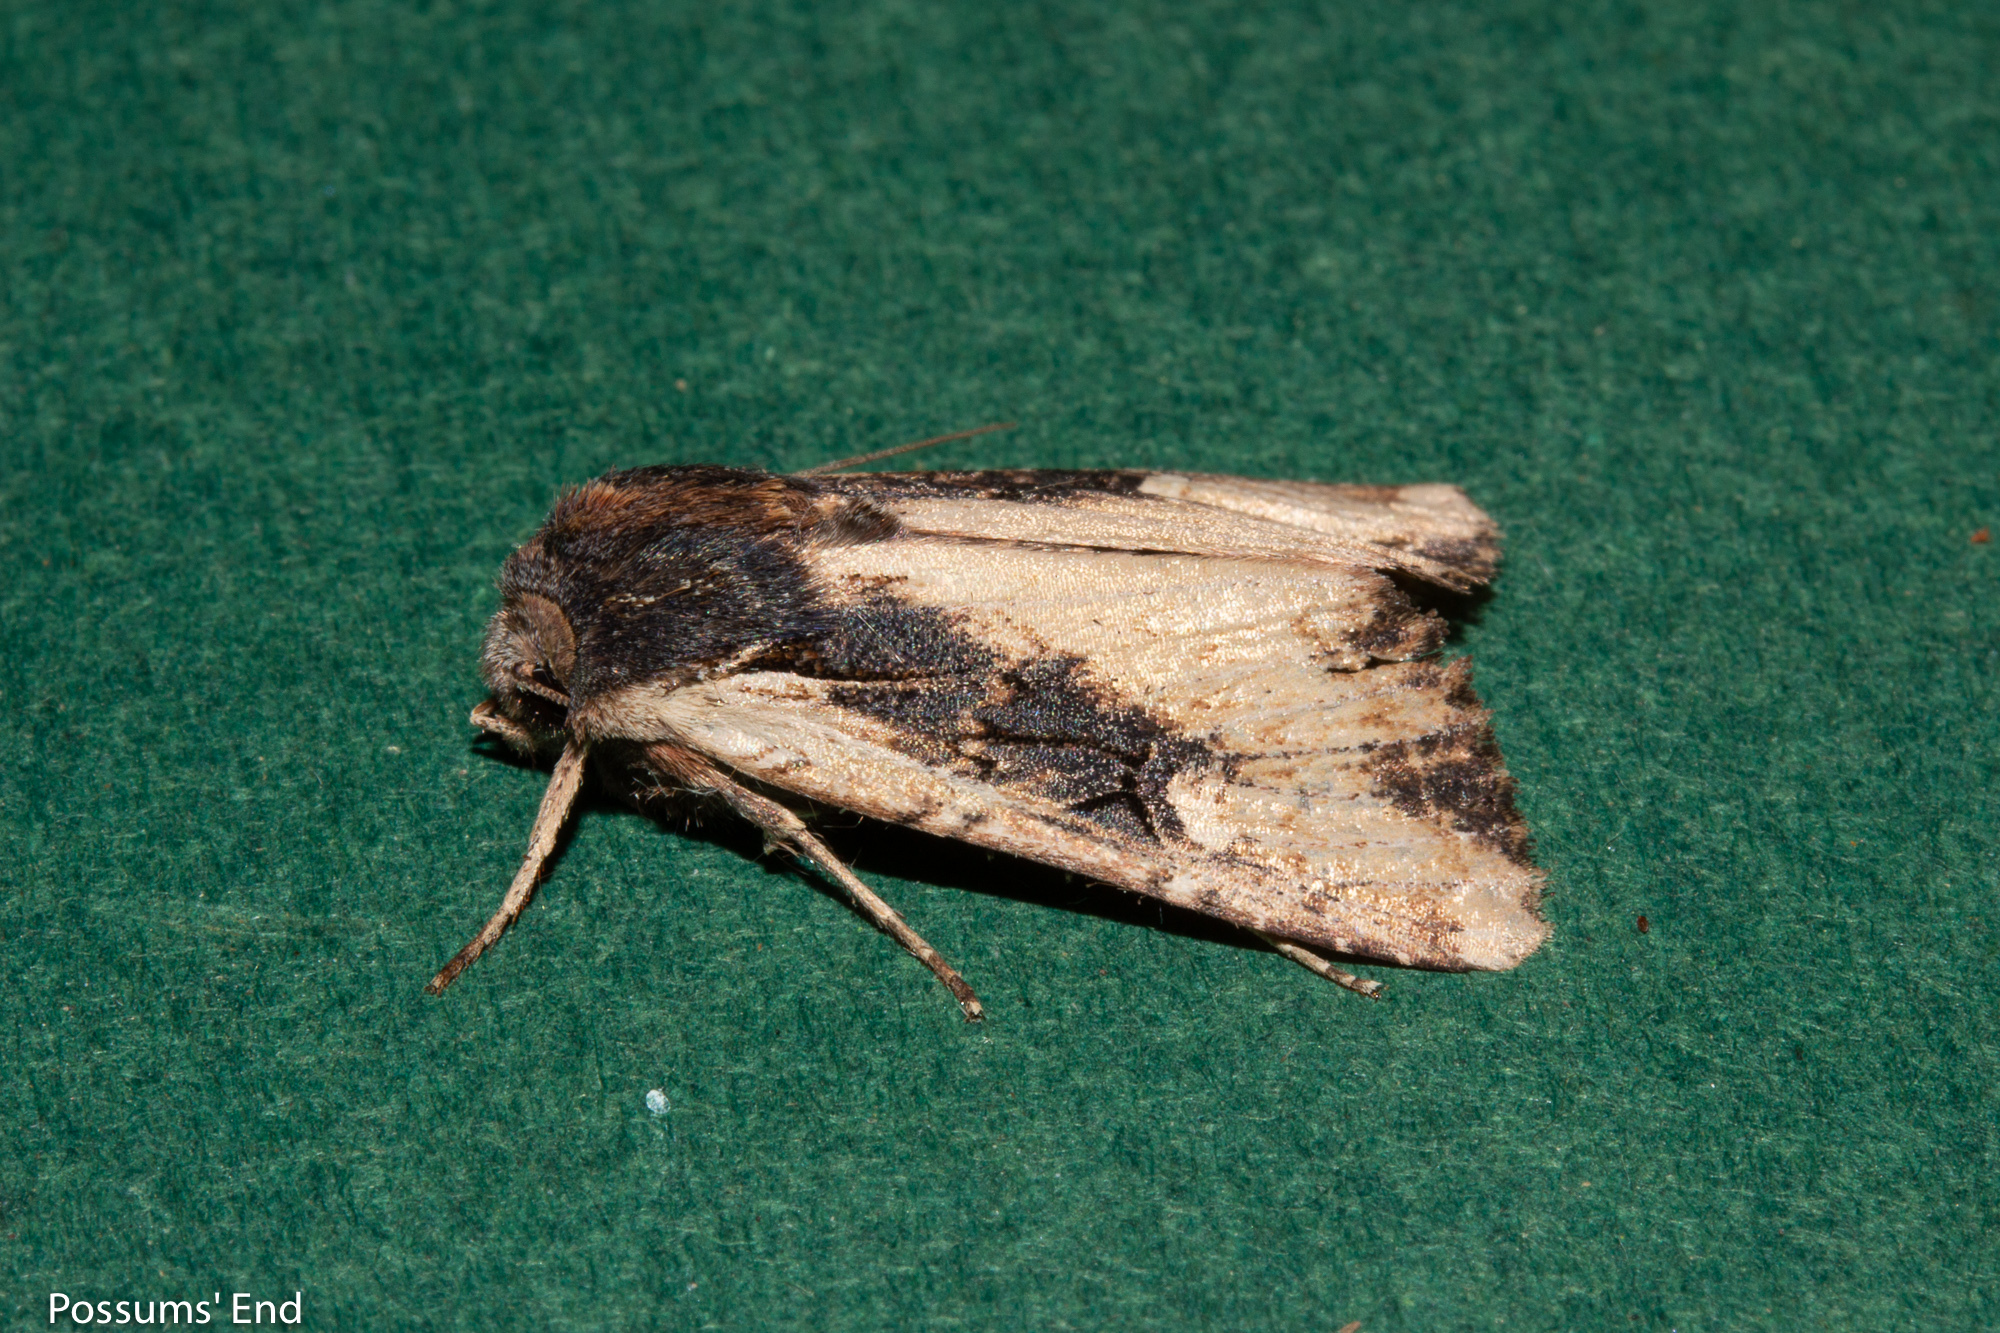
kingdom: Animalia
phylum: Arthropoda
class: Insecta
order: Lepidoptera
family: Noctuidae
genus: Ichneutica
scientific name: Ichneutica omoplaca
